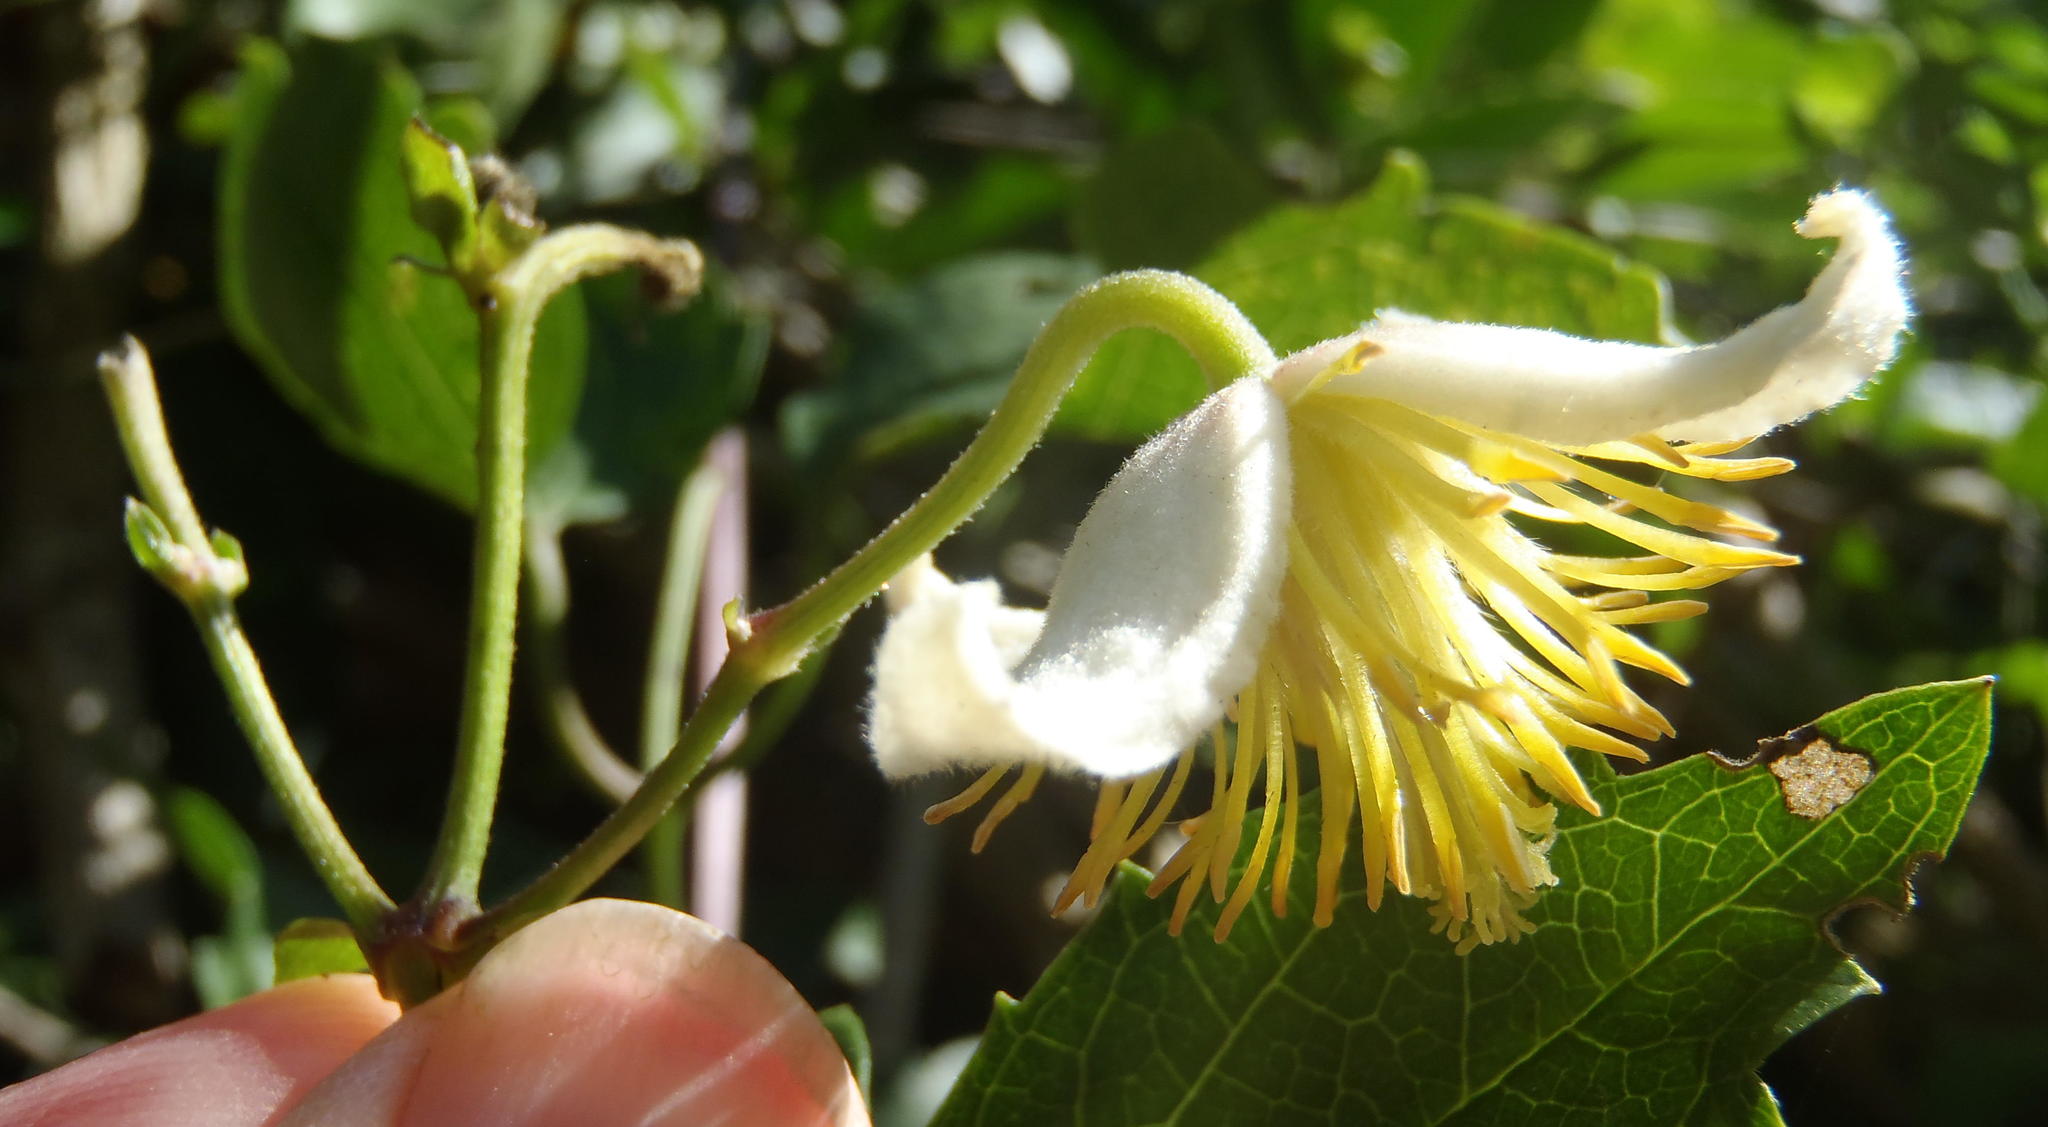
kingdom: Plantae
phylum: Tracheophyta
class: Magnoliopsida
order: Ranunculales
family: Ranunculaceae
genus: Clematis
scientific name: Clematis brachiata
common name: Traveler's-joy
